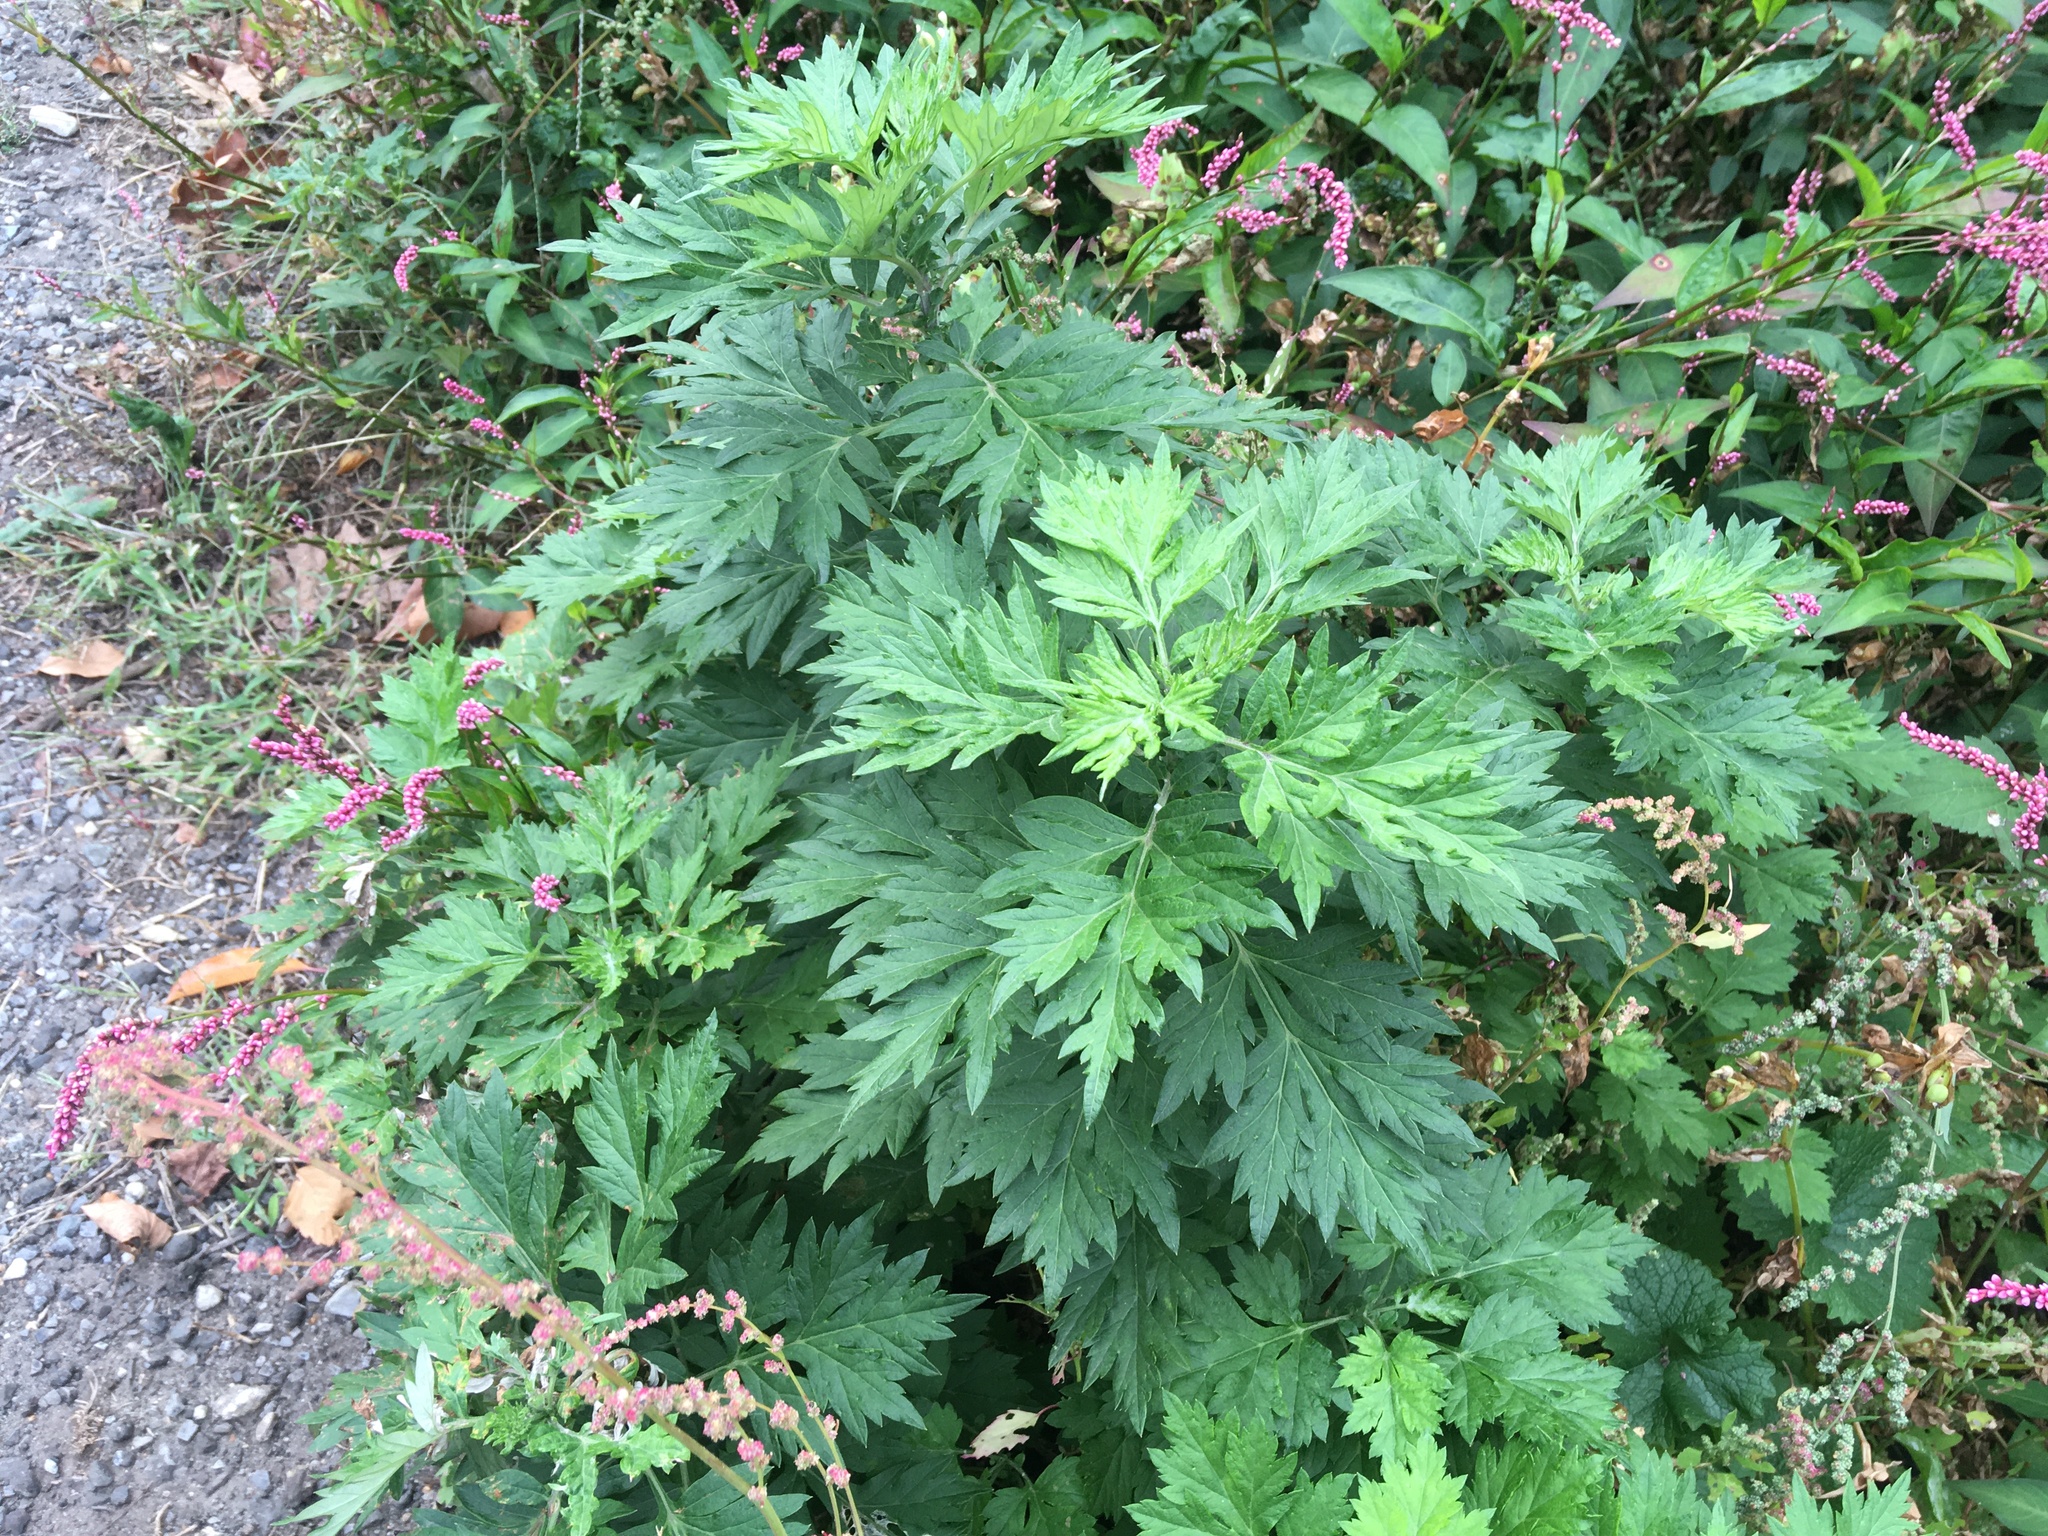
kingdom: Plantae
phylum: Tracheophyta
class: Magnoliopsida
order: Asterales
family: Asteraceae
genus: Artemisia
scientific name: Artemisia vulgaris
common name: Mugwort
